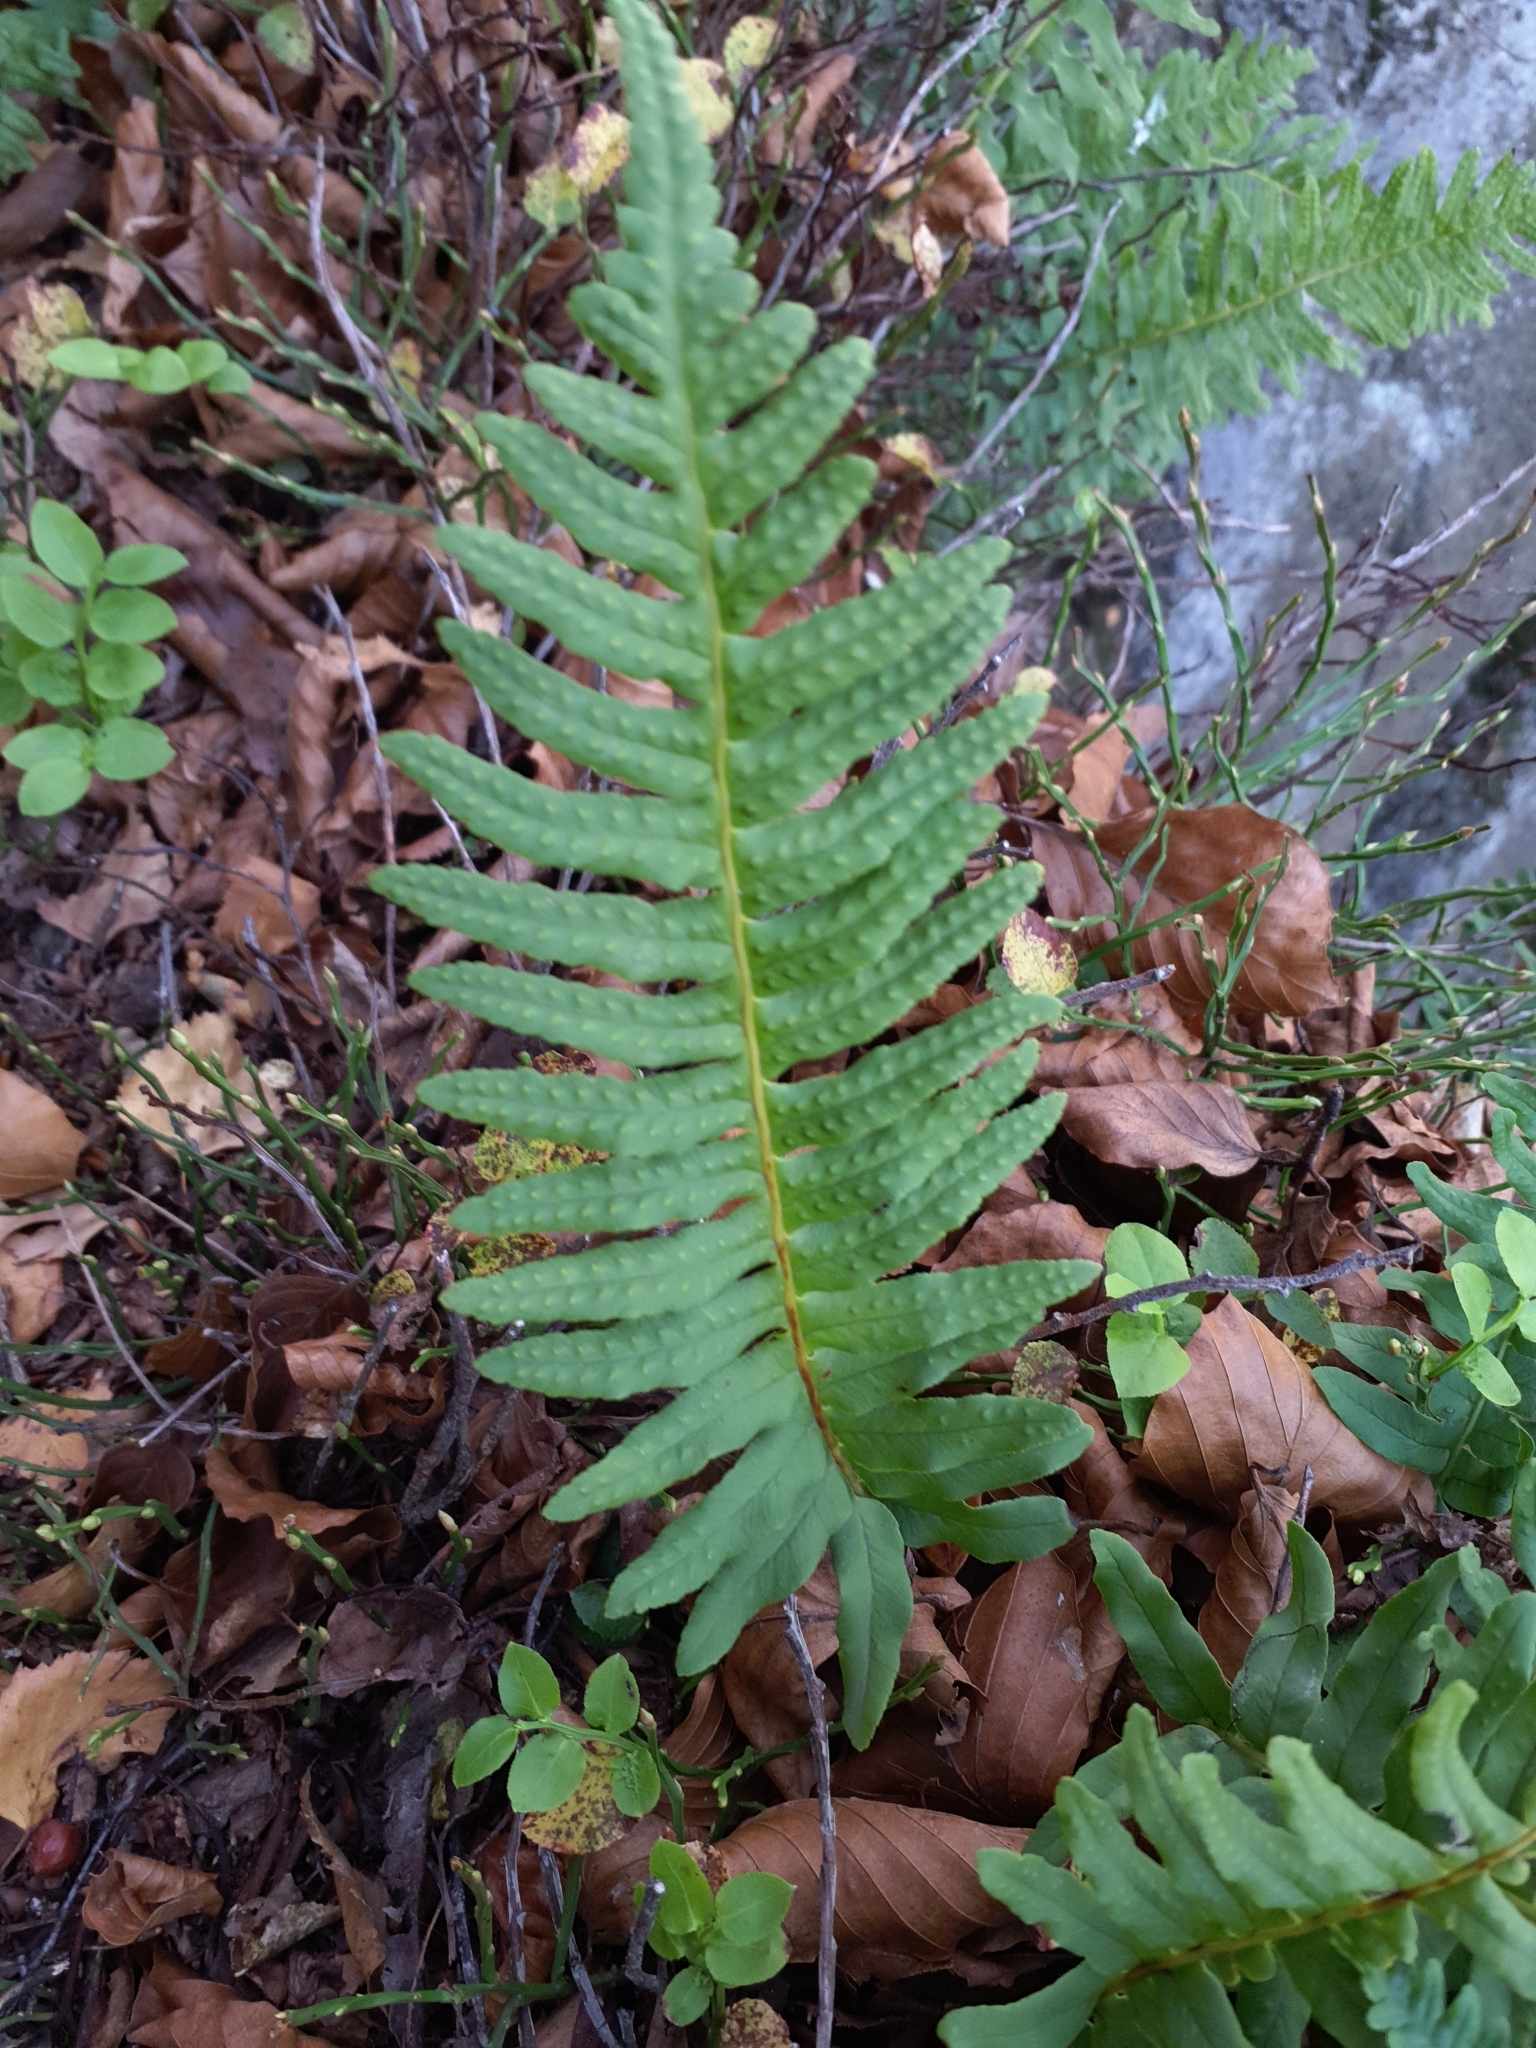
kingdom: Plantae
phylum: Tracheophyta
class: Polypodiopsida
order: Polypodiales
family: Polypodiaceae
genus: Polypodium
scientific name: Polypodium vulgare
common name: Common polypody
